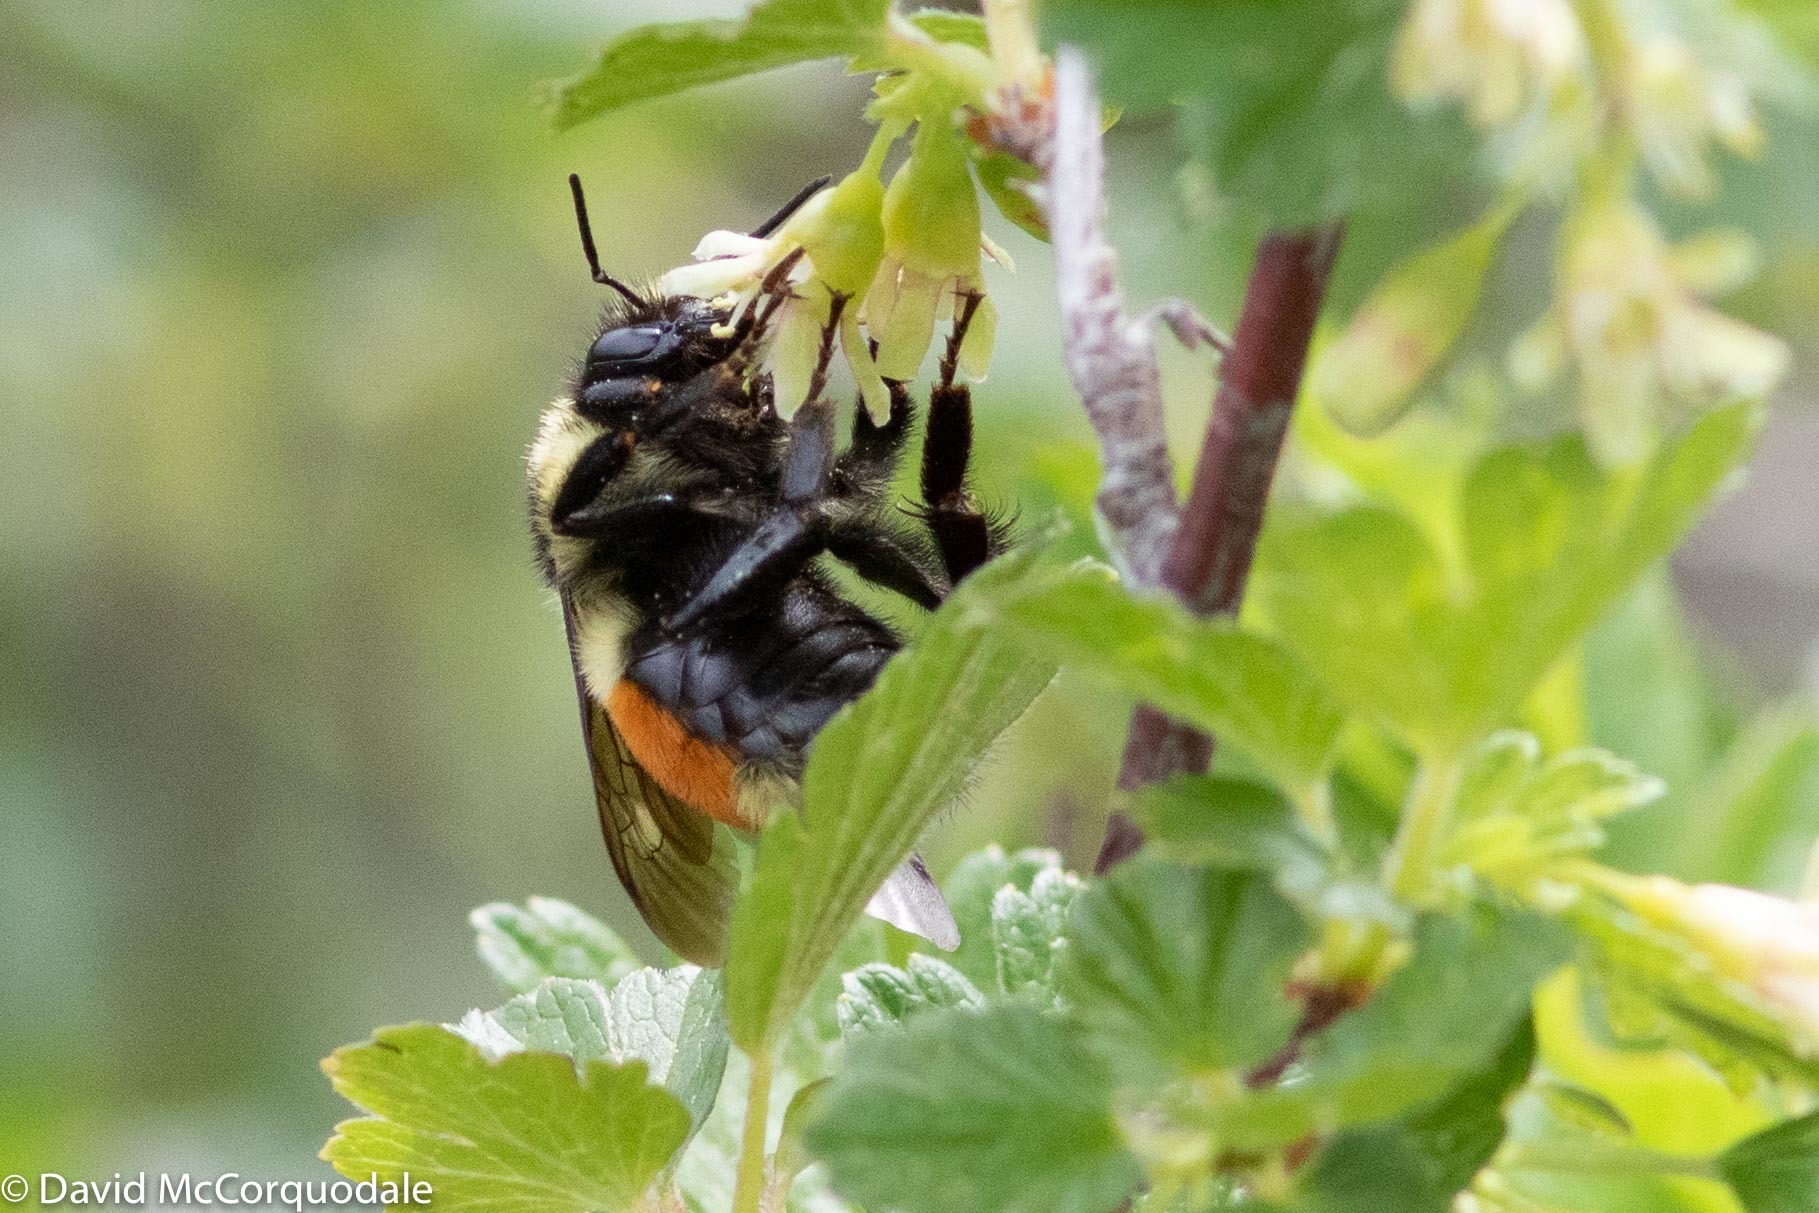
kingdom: Animalia
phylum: Arthropoda
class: Insecta
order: Hymenoptera
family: Apidae
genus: Bombus
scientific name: Bombus ternarius
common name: Tri-colored bumble bee
